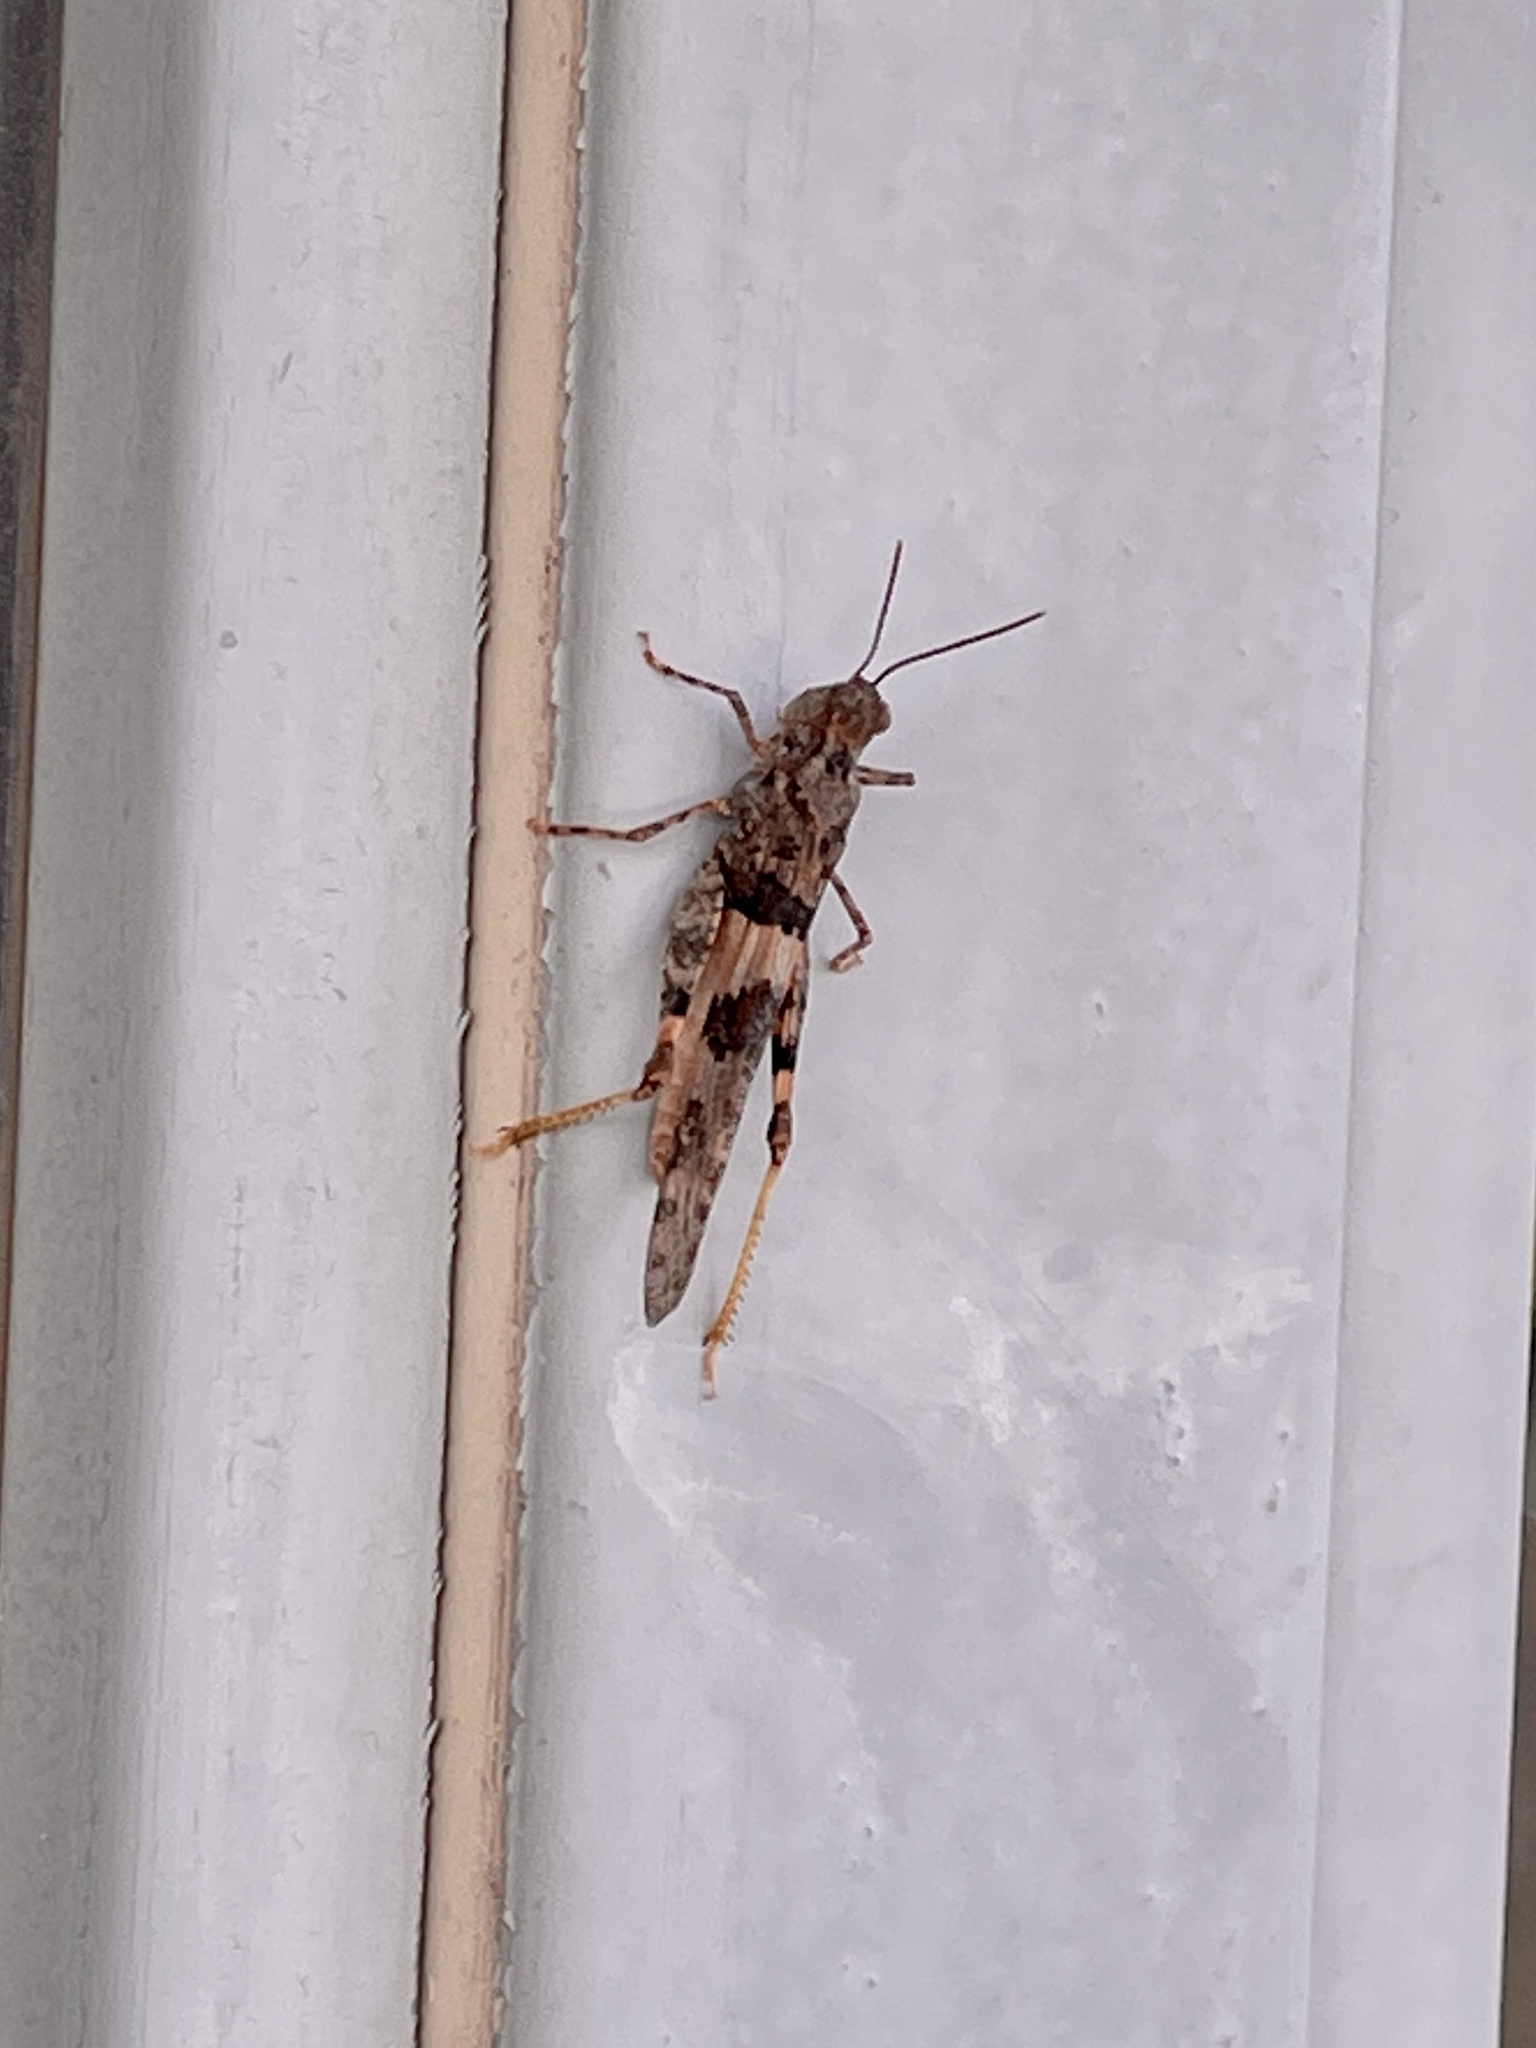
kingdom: Animalia
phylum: Arthropoda
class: Insecta
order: Orthoptera
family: Acrididae
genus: Trimerotropis
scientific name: Trimerotropis pallidipennis
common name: Pallid-winged grasshopper
